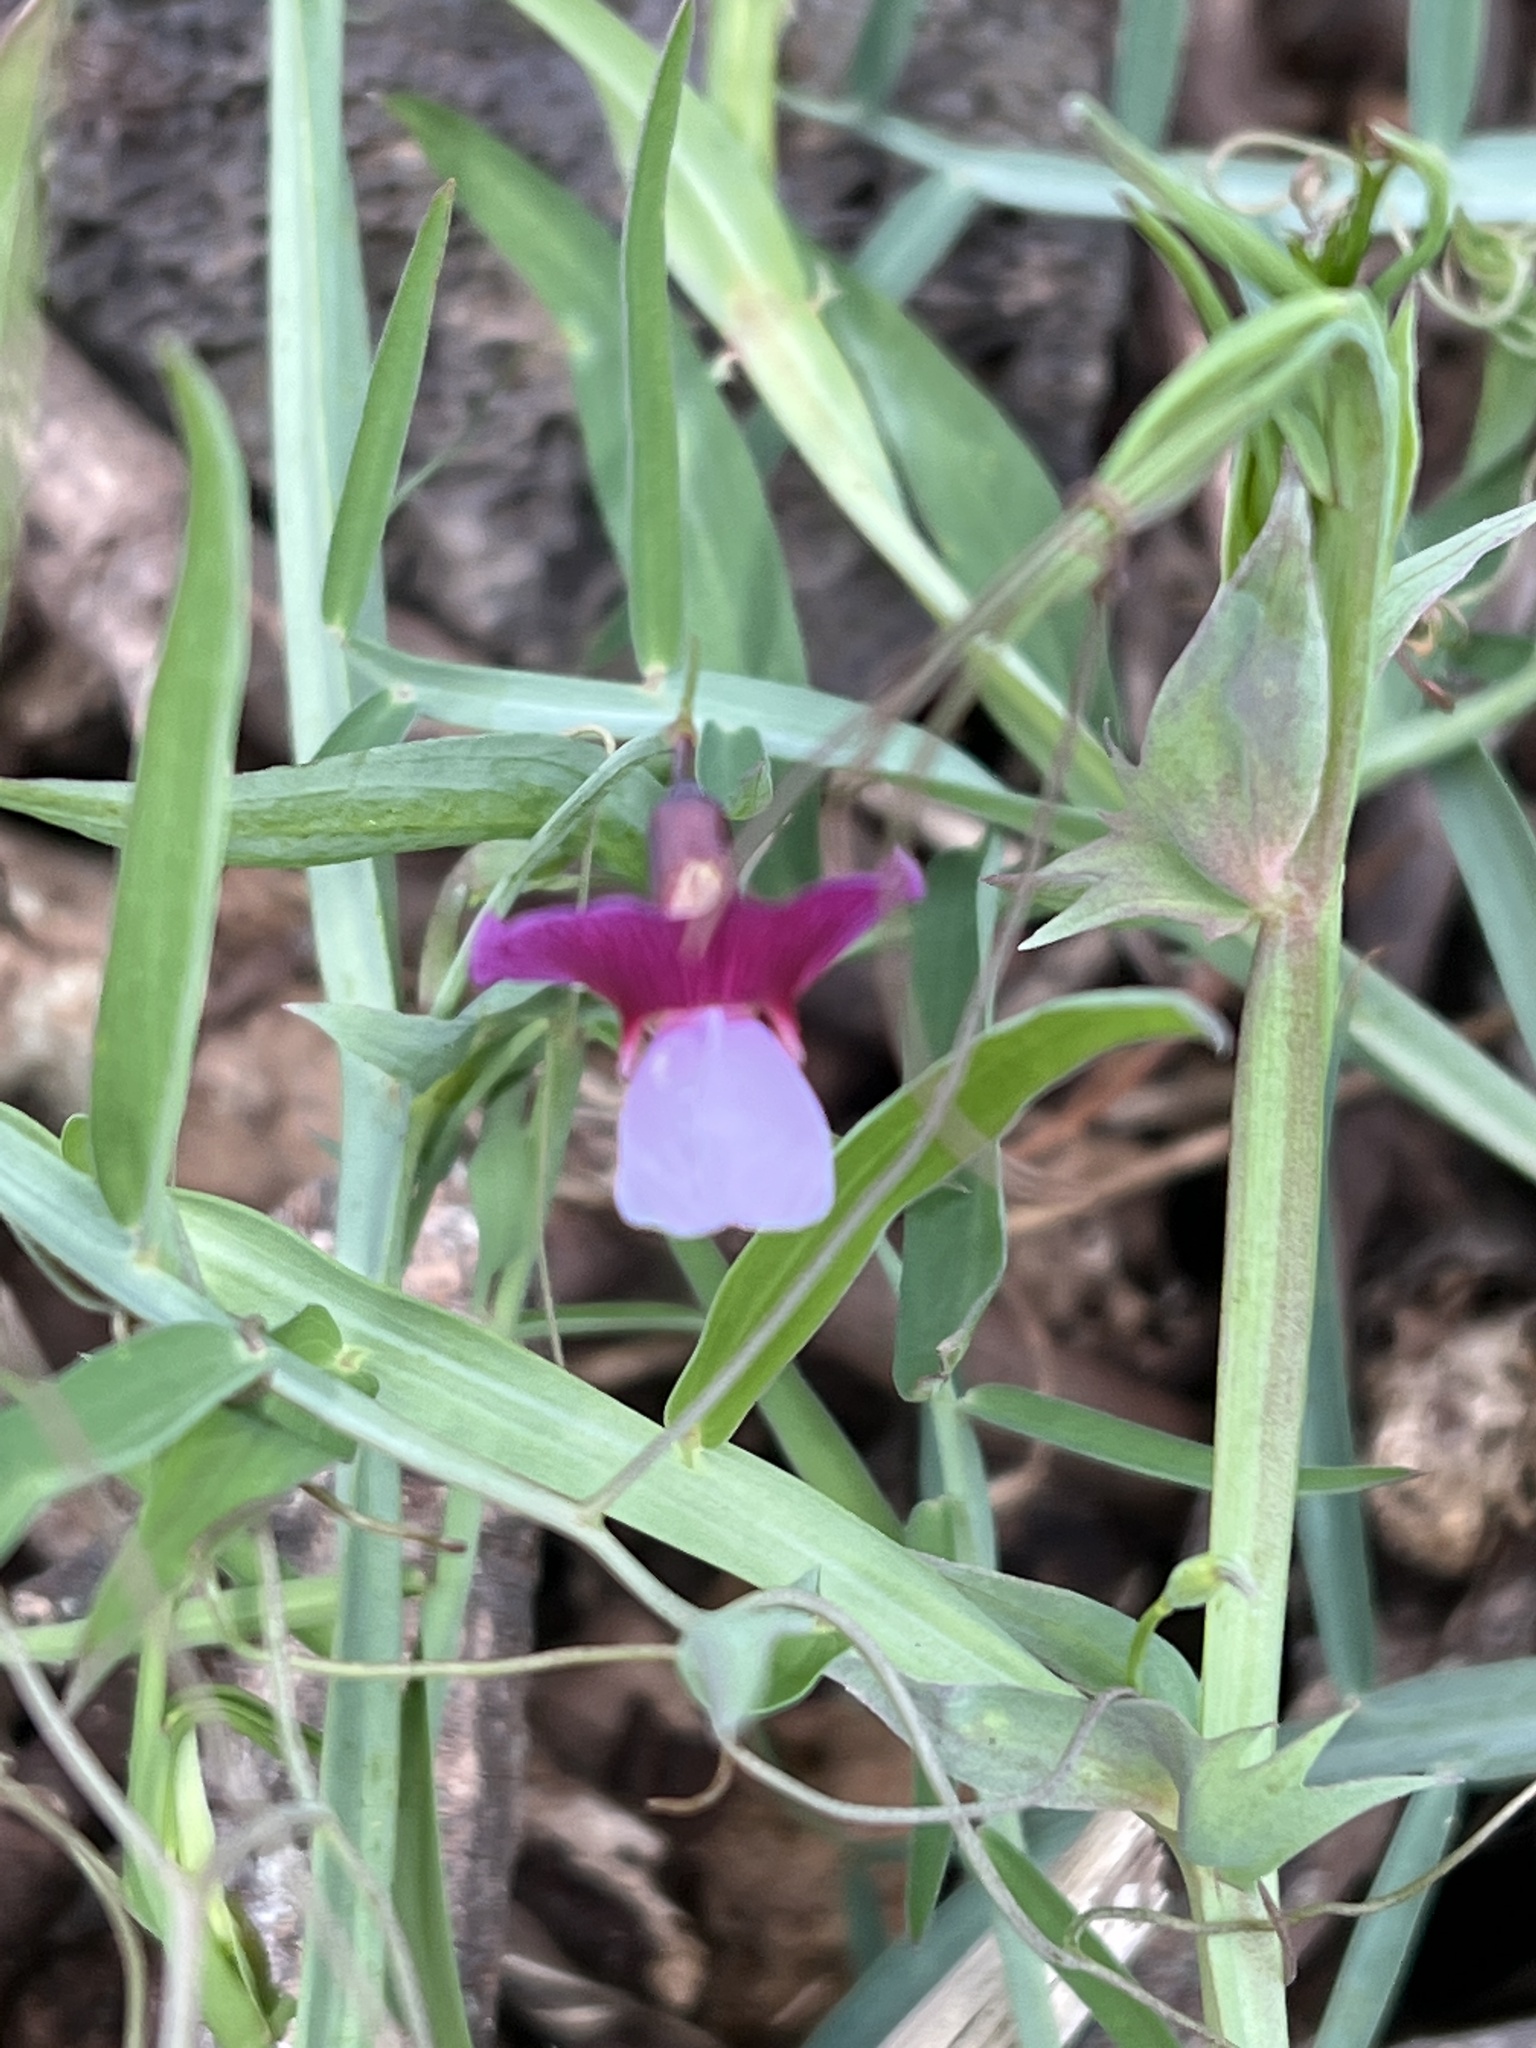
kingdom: Plantae
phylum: Tracheophyta
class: Magnoliopsida
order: Fabales
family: Fabaceae
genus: Lathyrus
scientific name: Lathyrus clymenum
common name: Spanish vetchling
